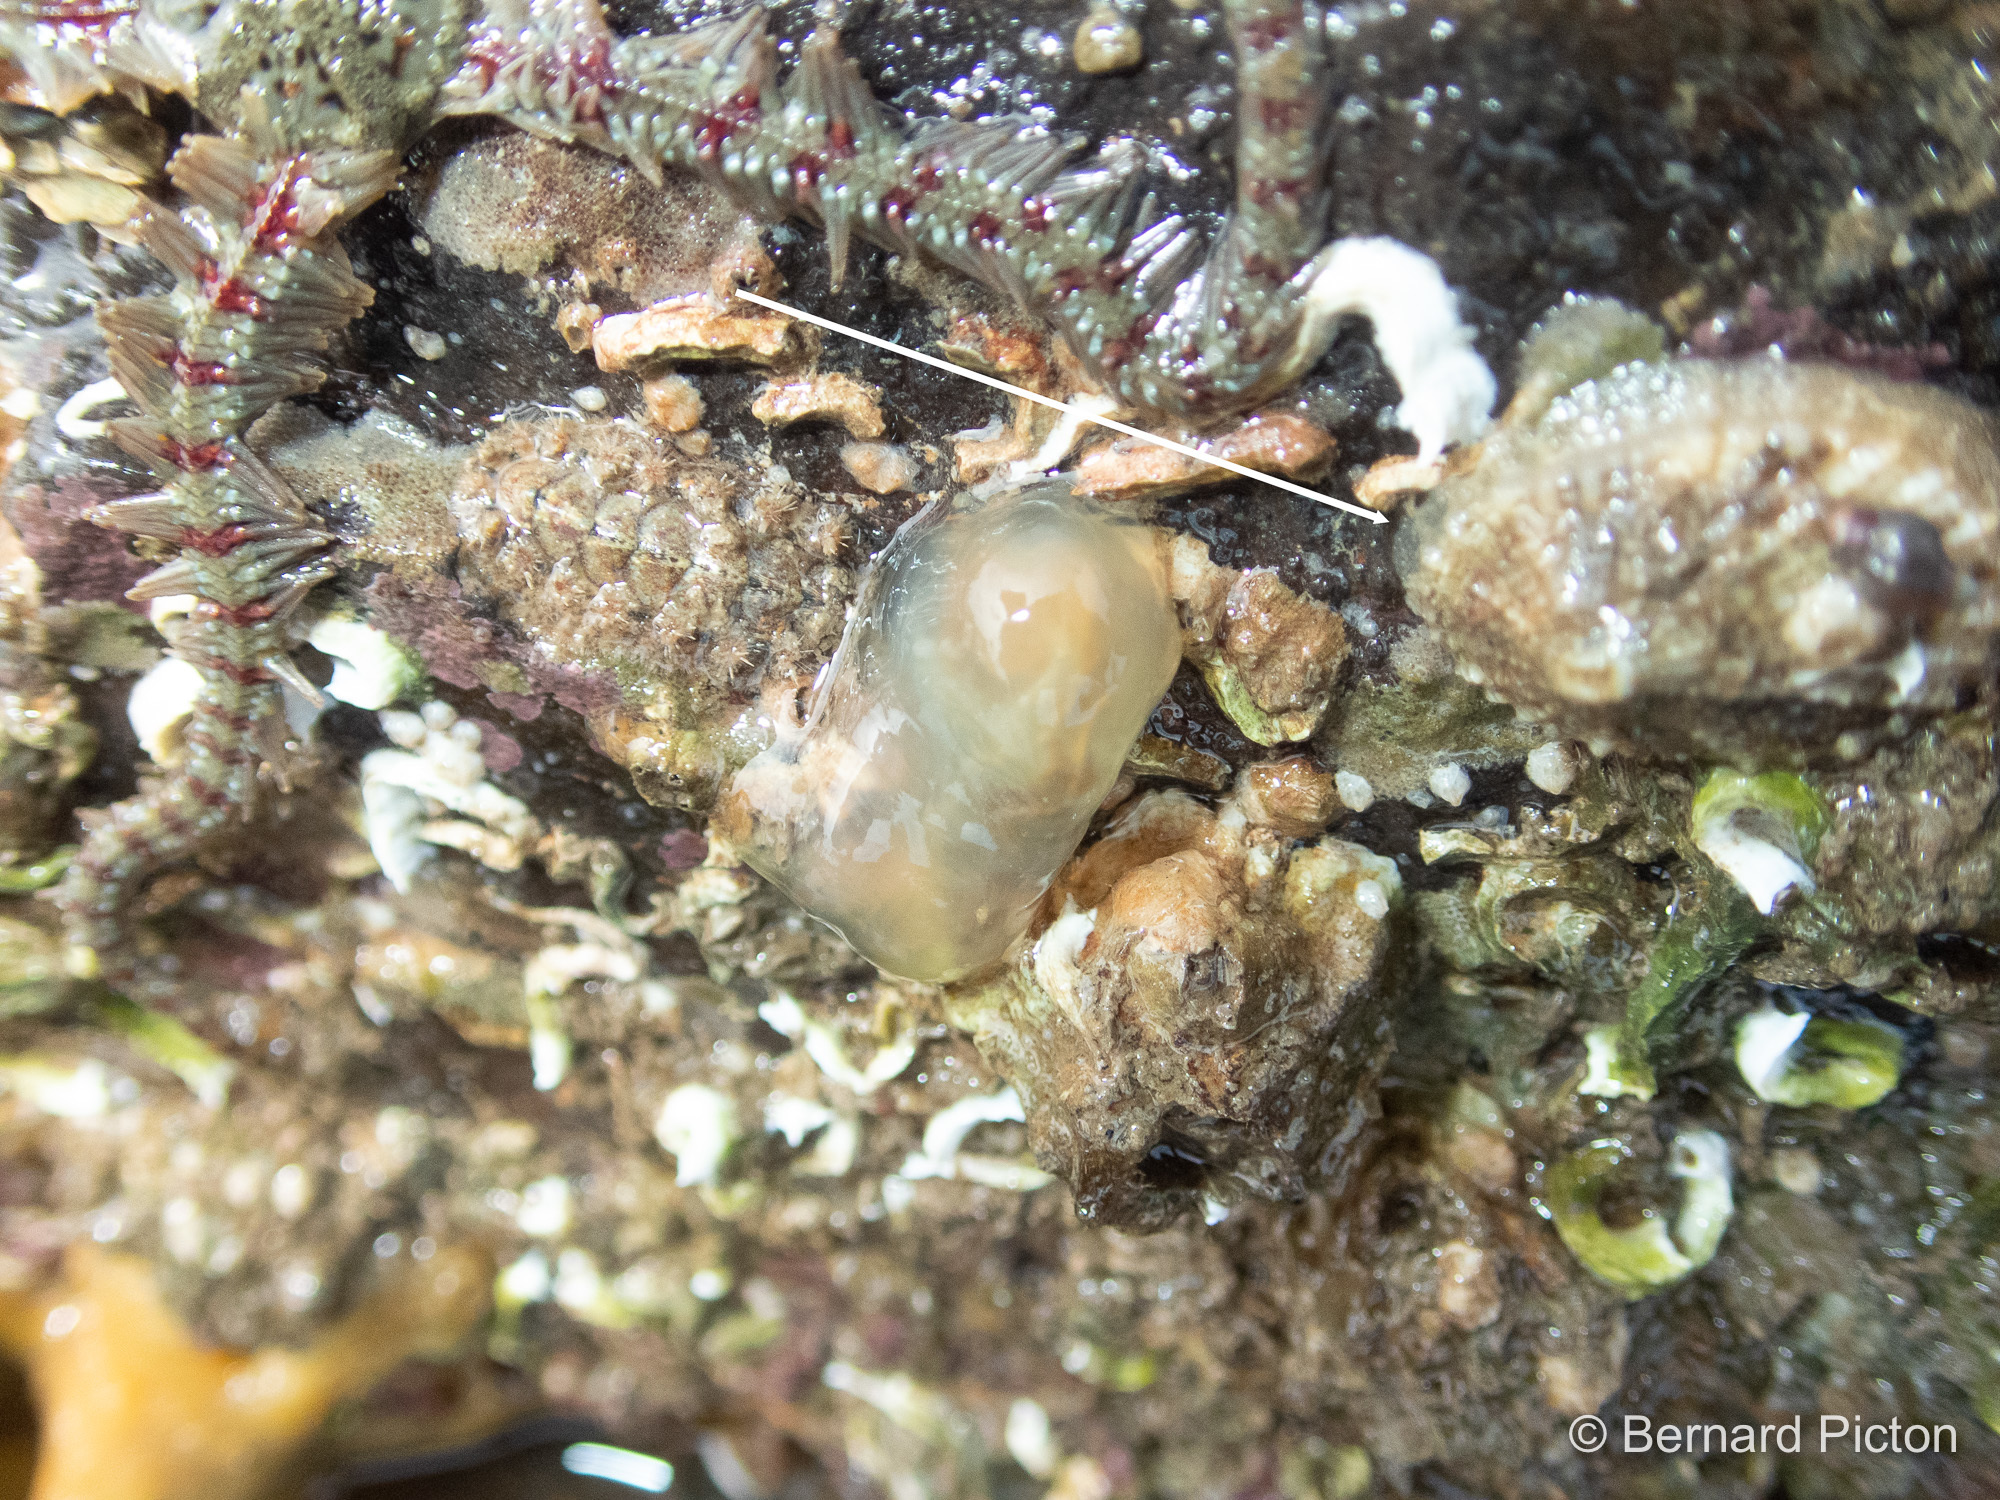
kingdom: Animalia
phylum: Mollusca
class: Gastropoda
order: Lepetellida
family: Fissurellidae
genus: Diodora
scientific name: Diodora graeca
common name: Common keyhole limpet
